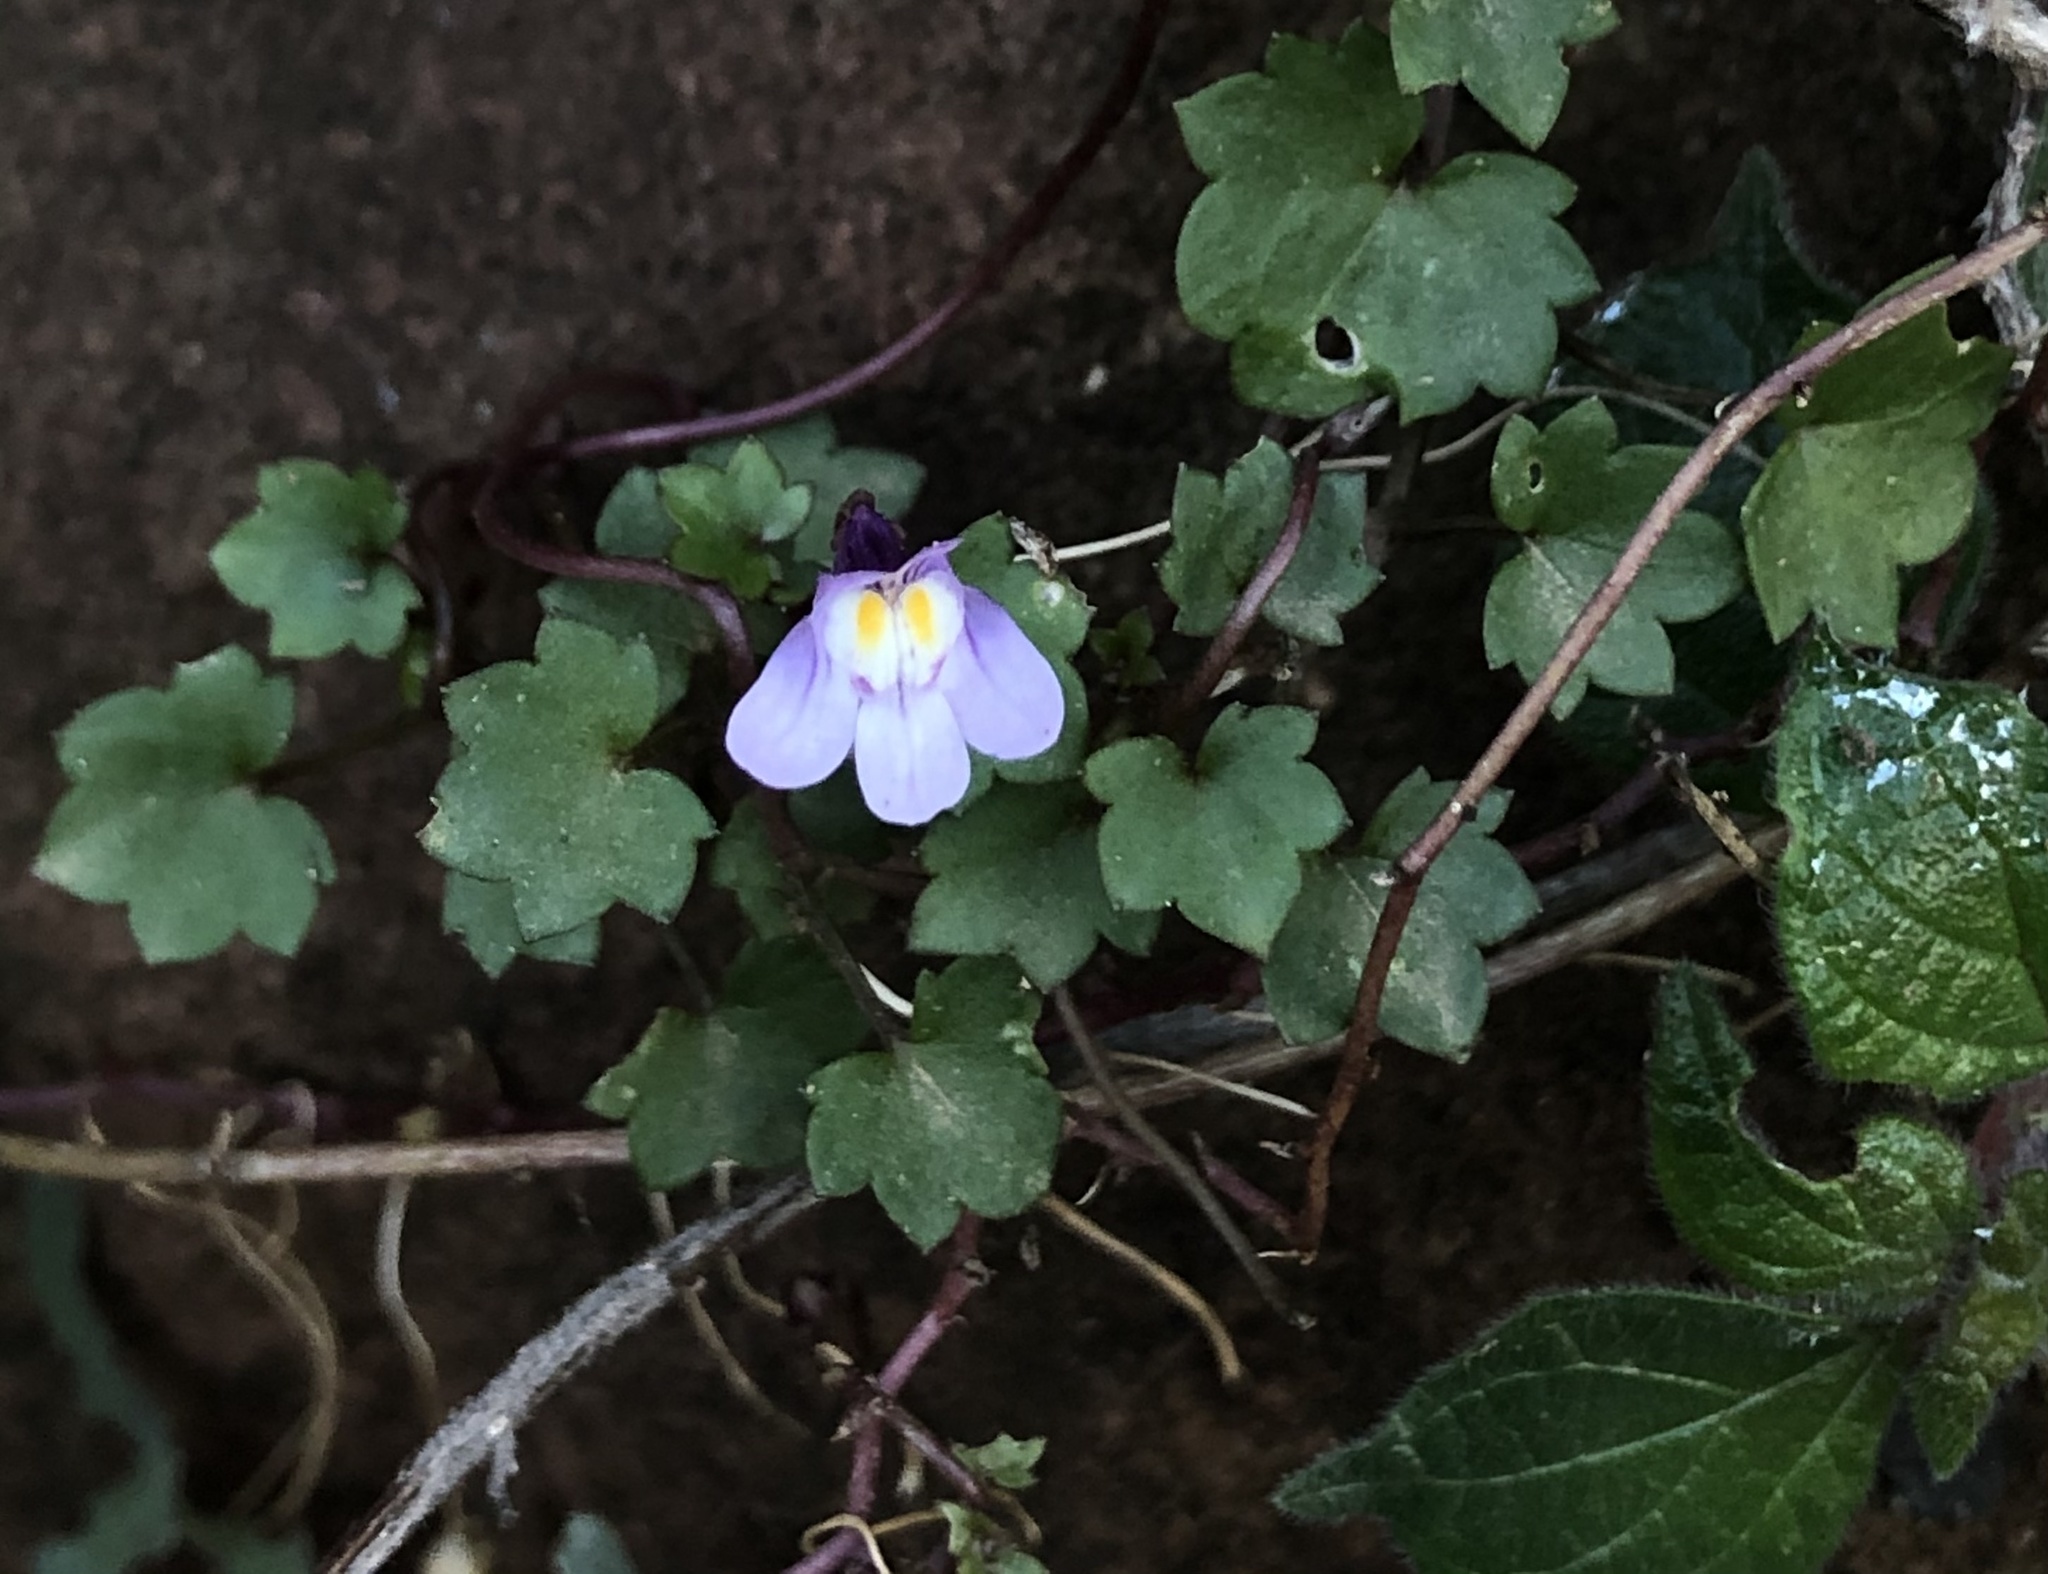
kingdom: Plantae
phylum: Tracheophyta
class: Magnoliopsida
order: Lamiales
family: Plantaginaceae
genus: Cymbalaria
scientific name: Cymbalaria muralis
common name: Ivy-leaved toadflax
